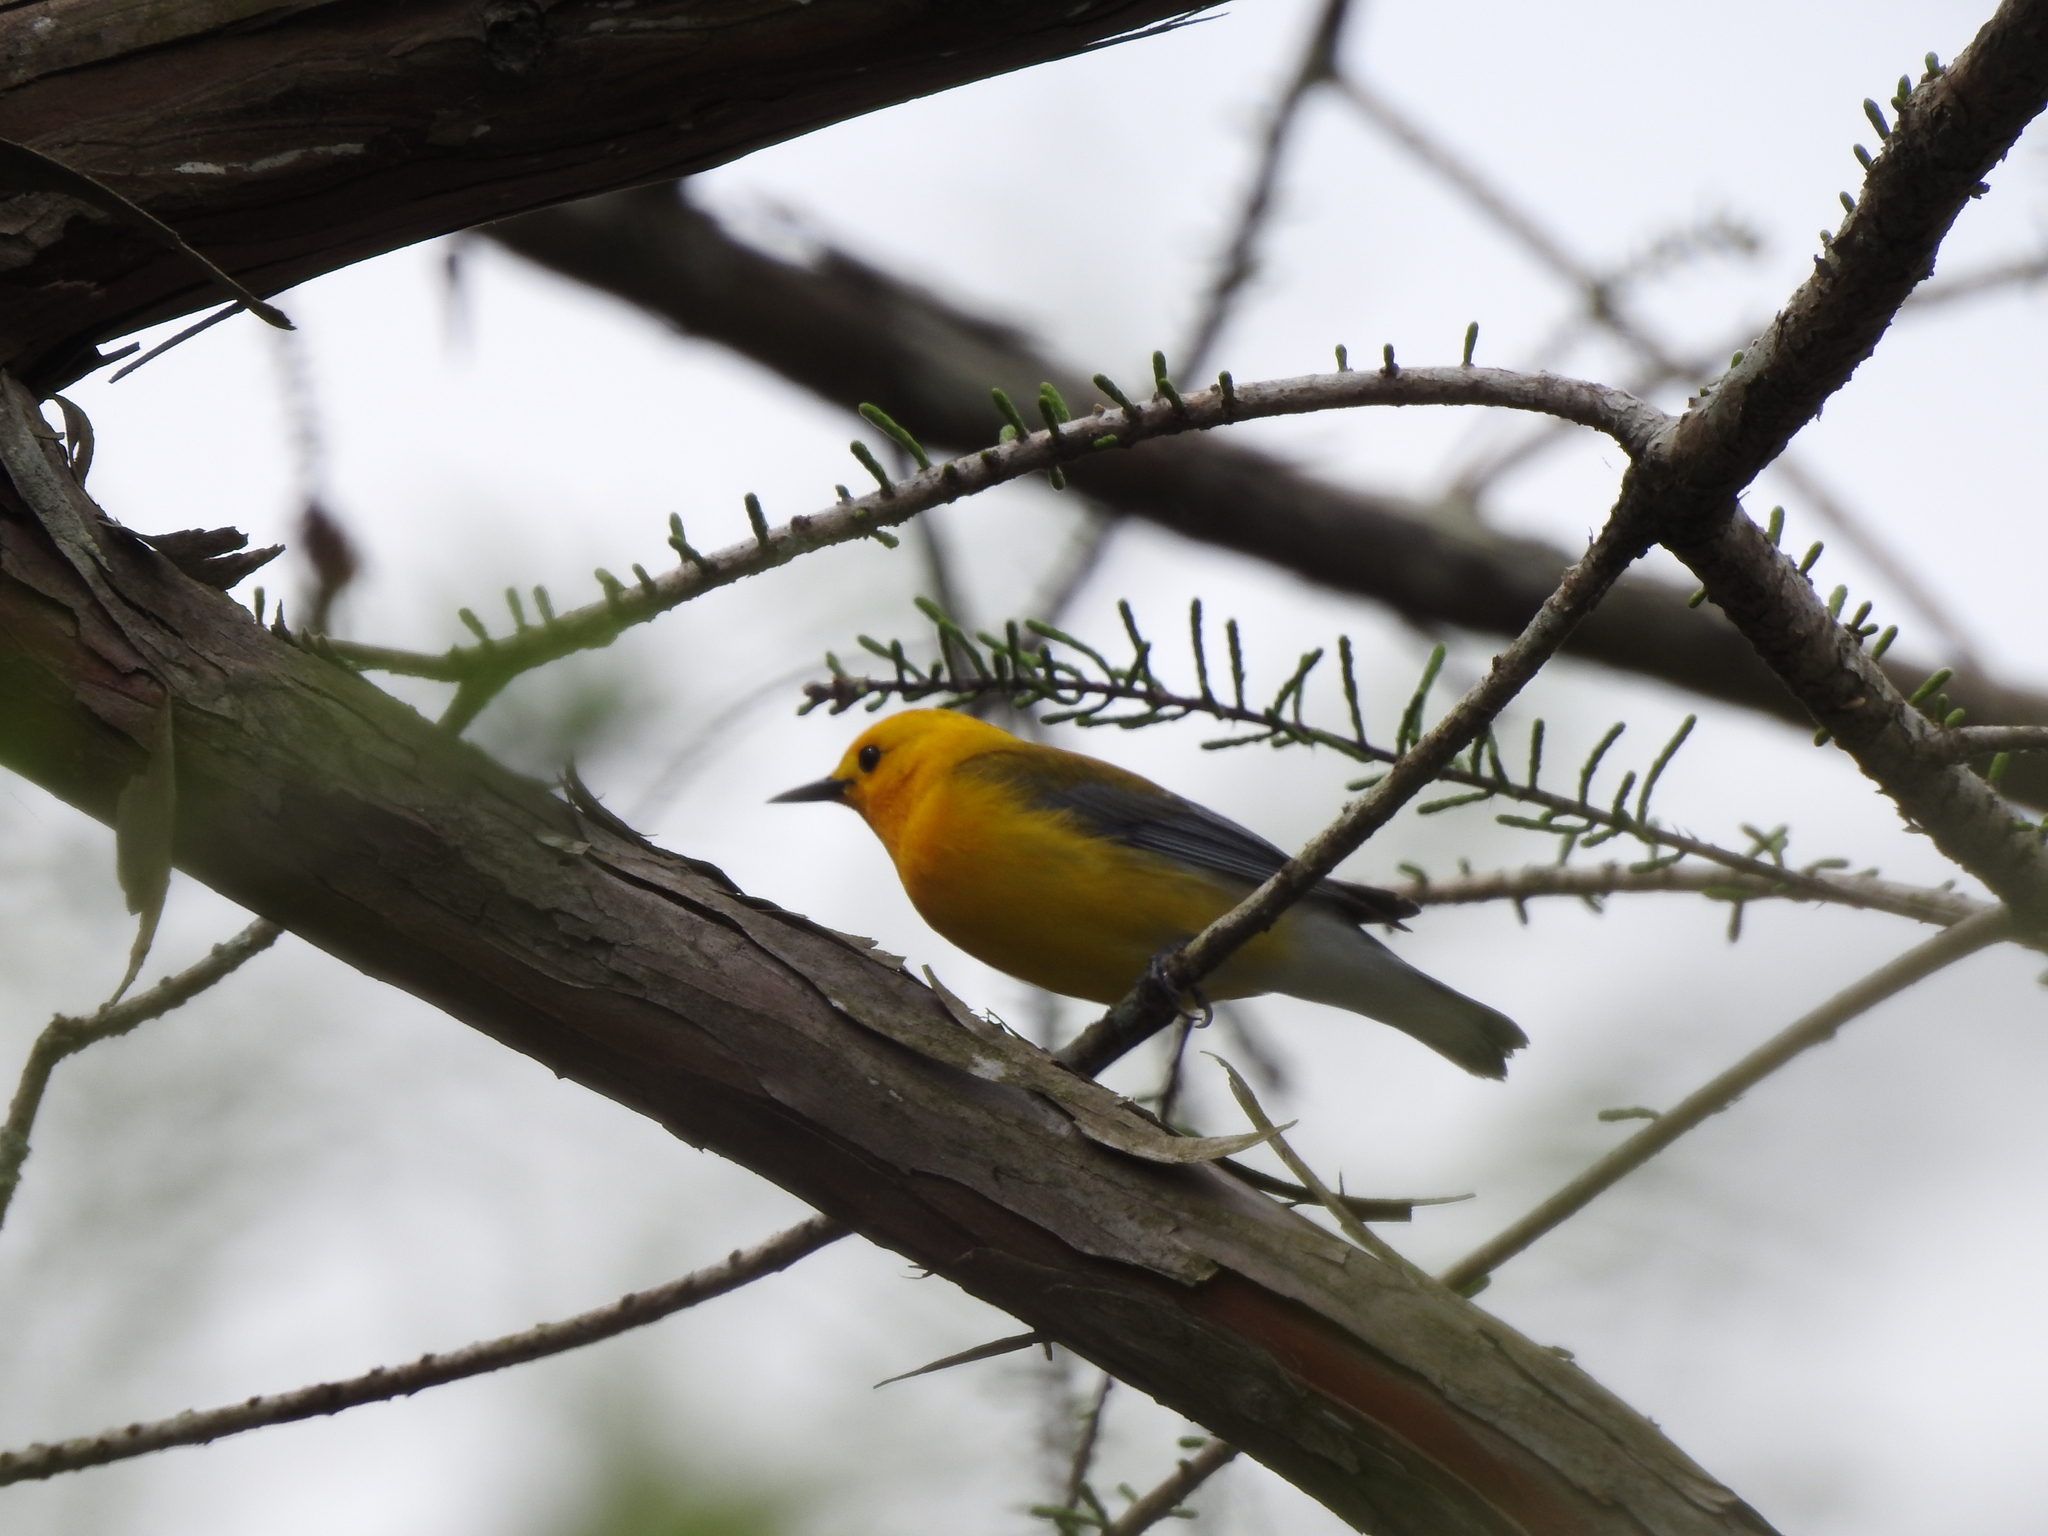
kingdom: Animalia
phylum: Chordata
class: Aves
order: Passeriformes
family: Parulidae
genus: Protonotaria
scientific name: Protonotaria citrea
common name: Prothonotary warbler
